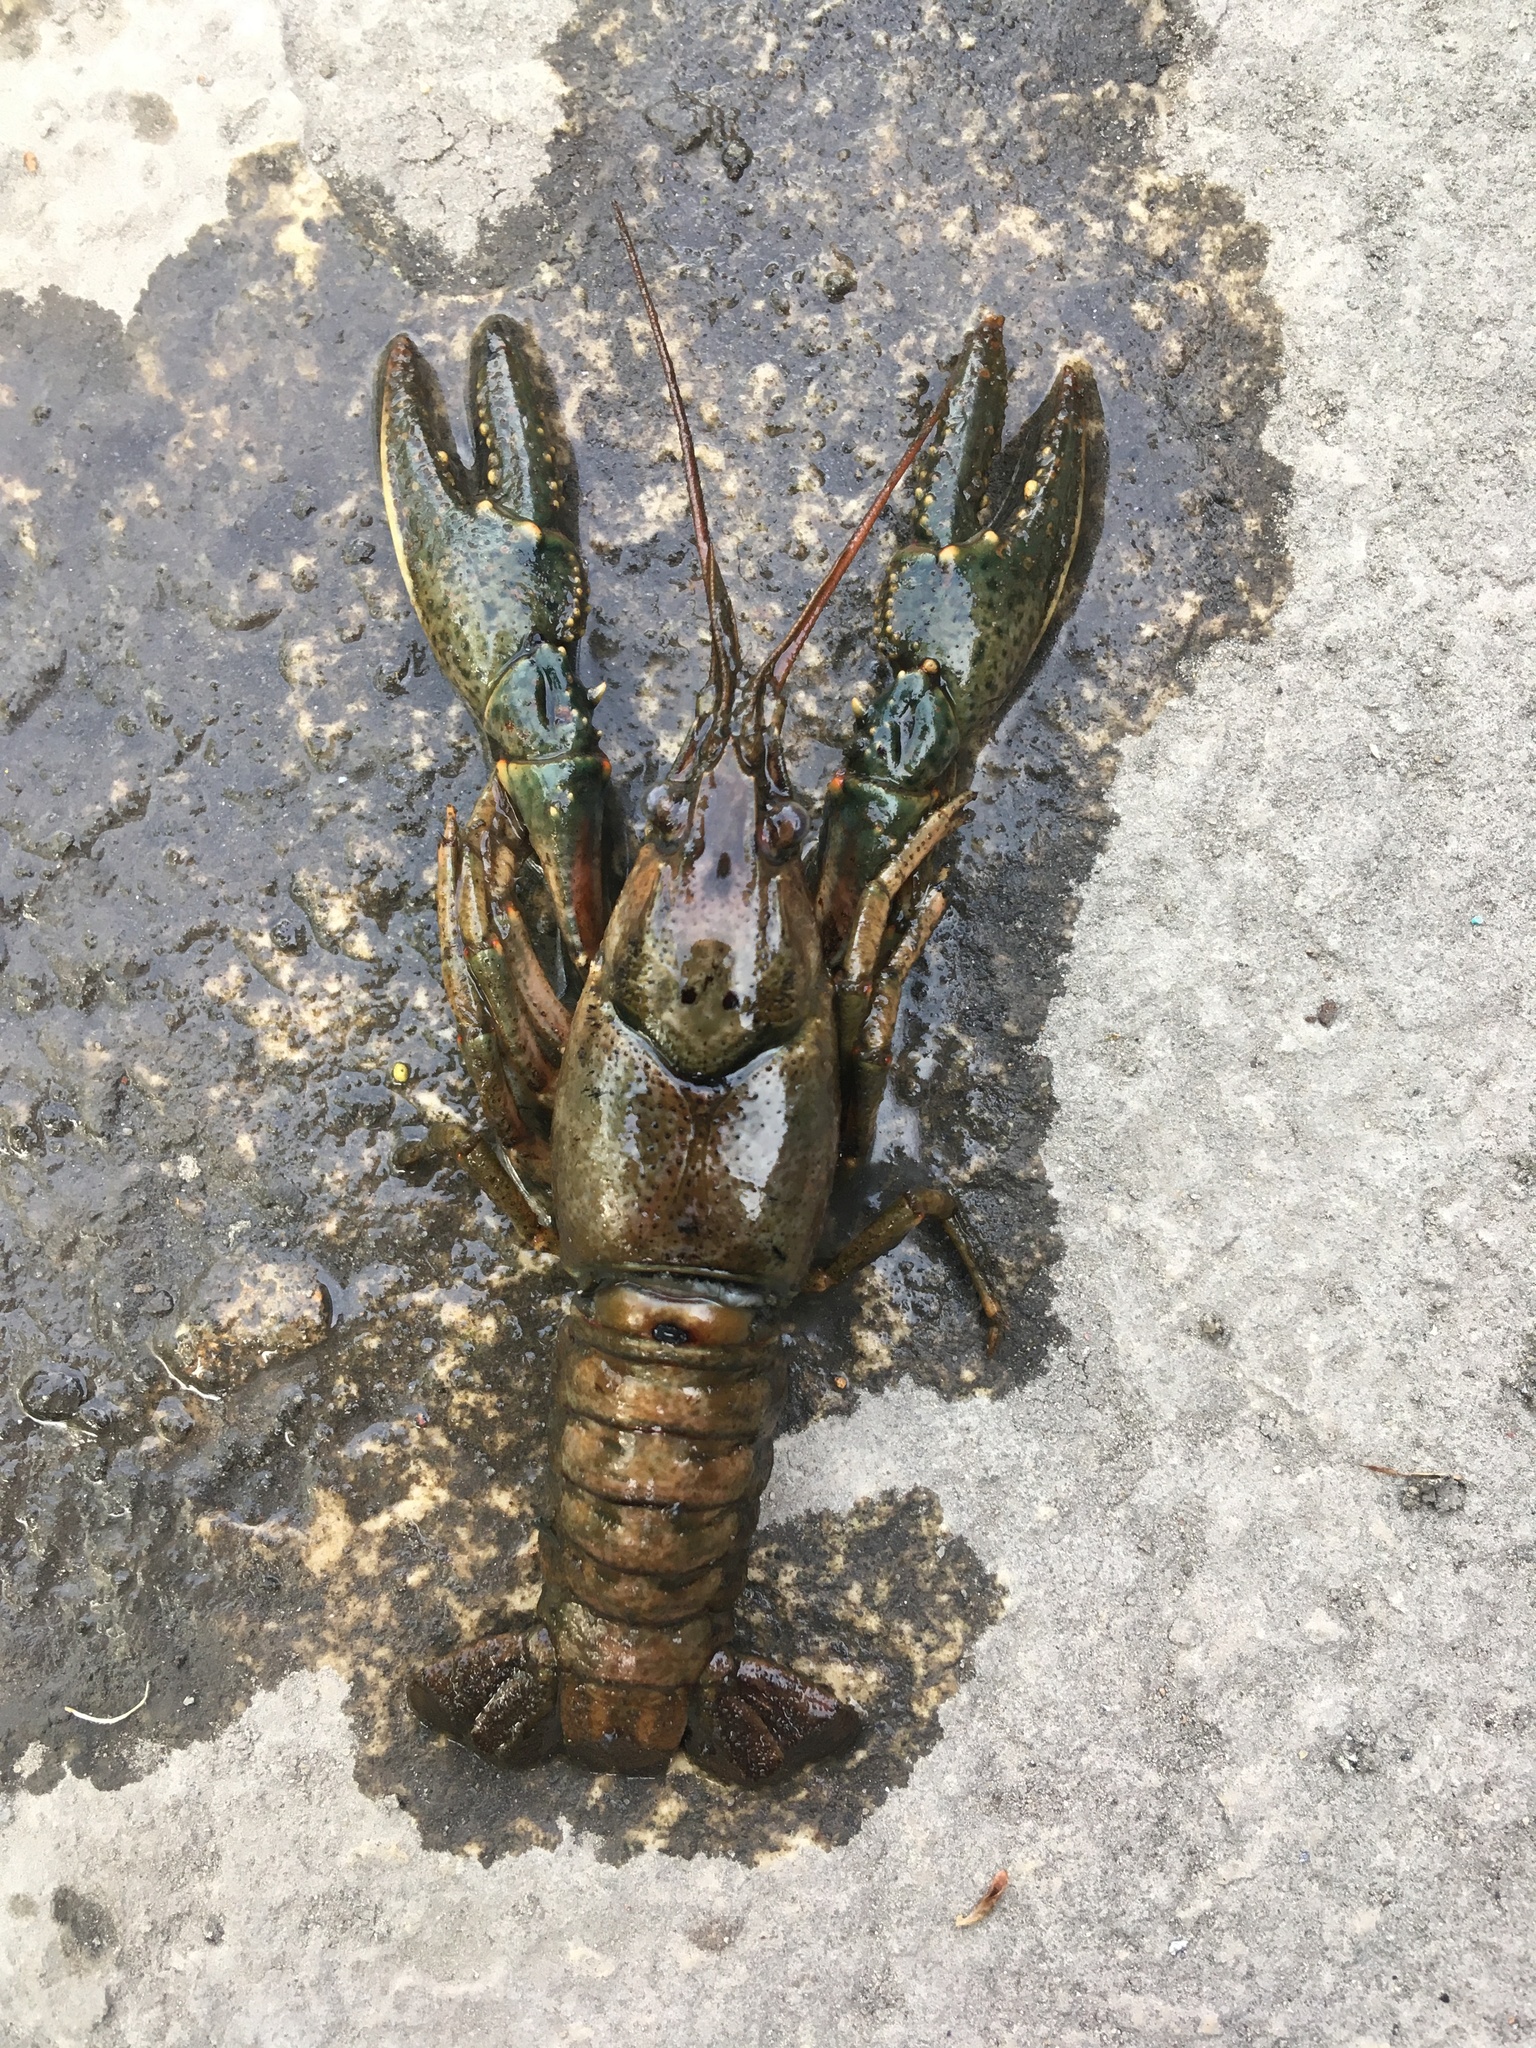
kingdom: Animalia
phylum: Arthropoda
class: Malacostraca
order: Decapoda
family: Cambaridae
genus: Faxonius
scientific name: Faxonius virilis
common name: Virile crayfish
